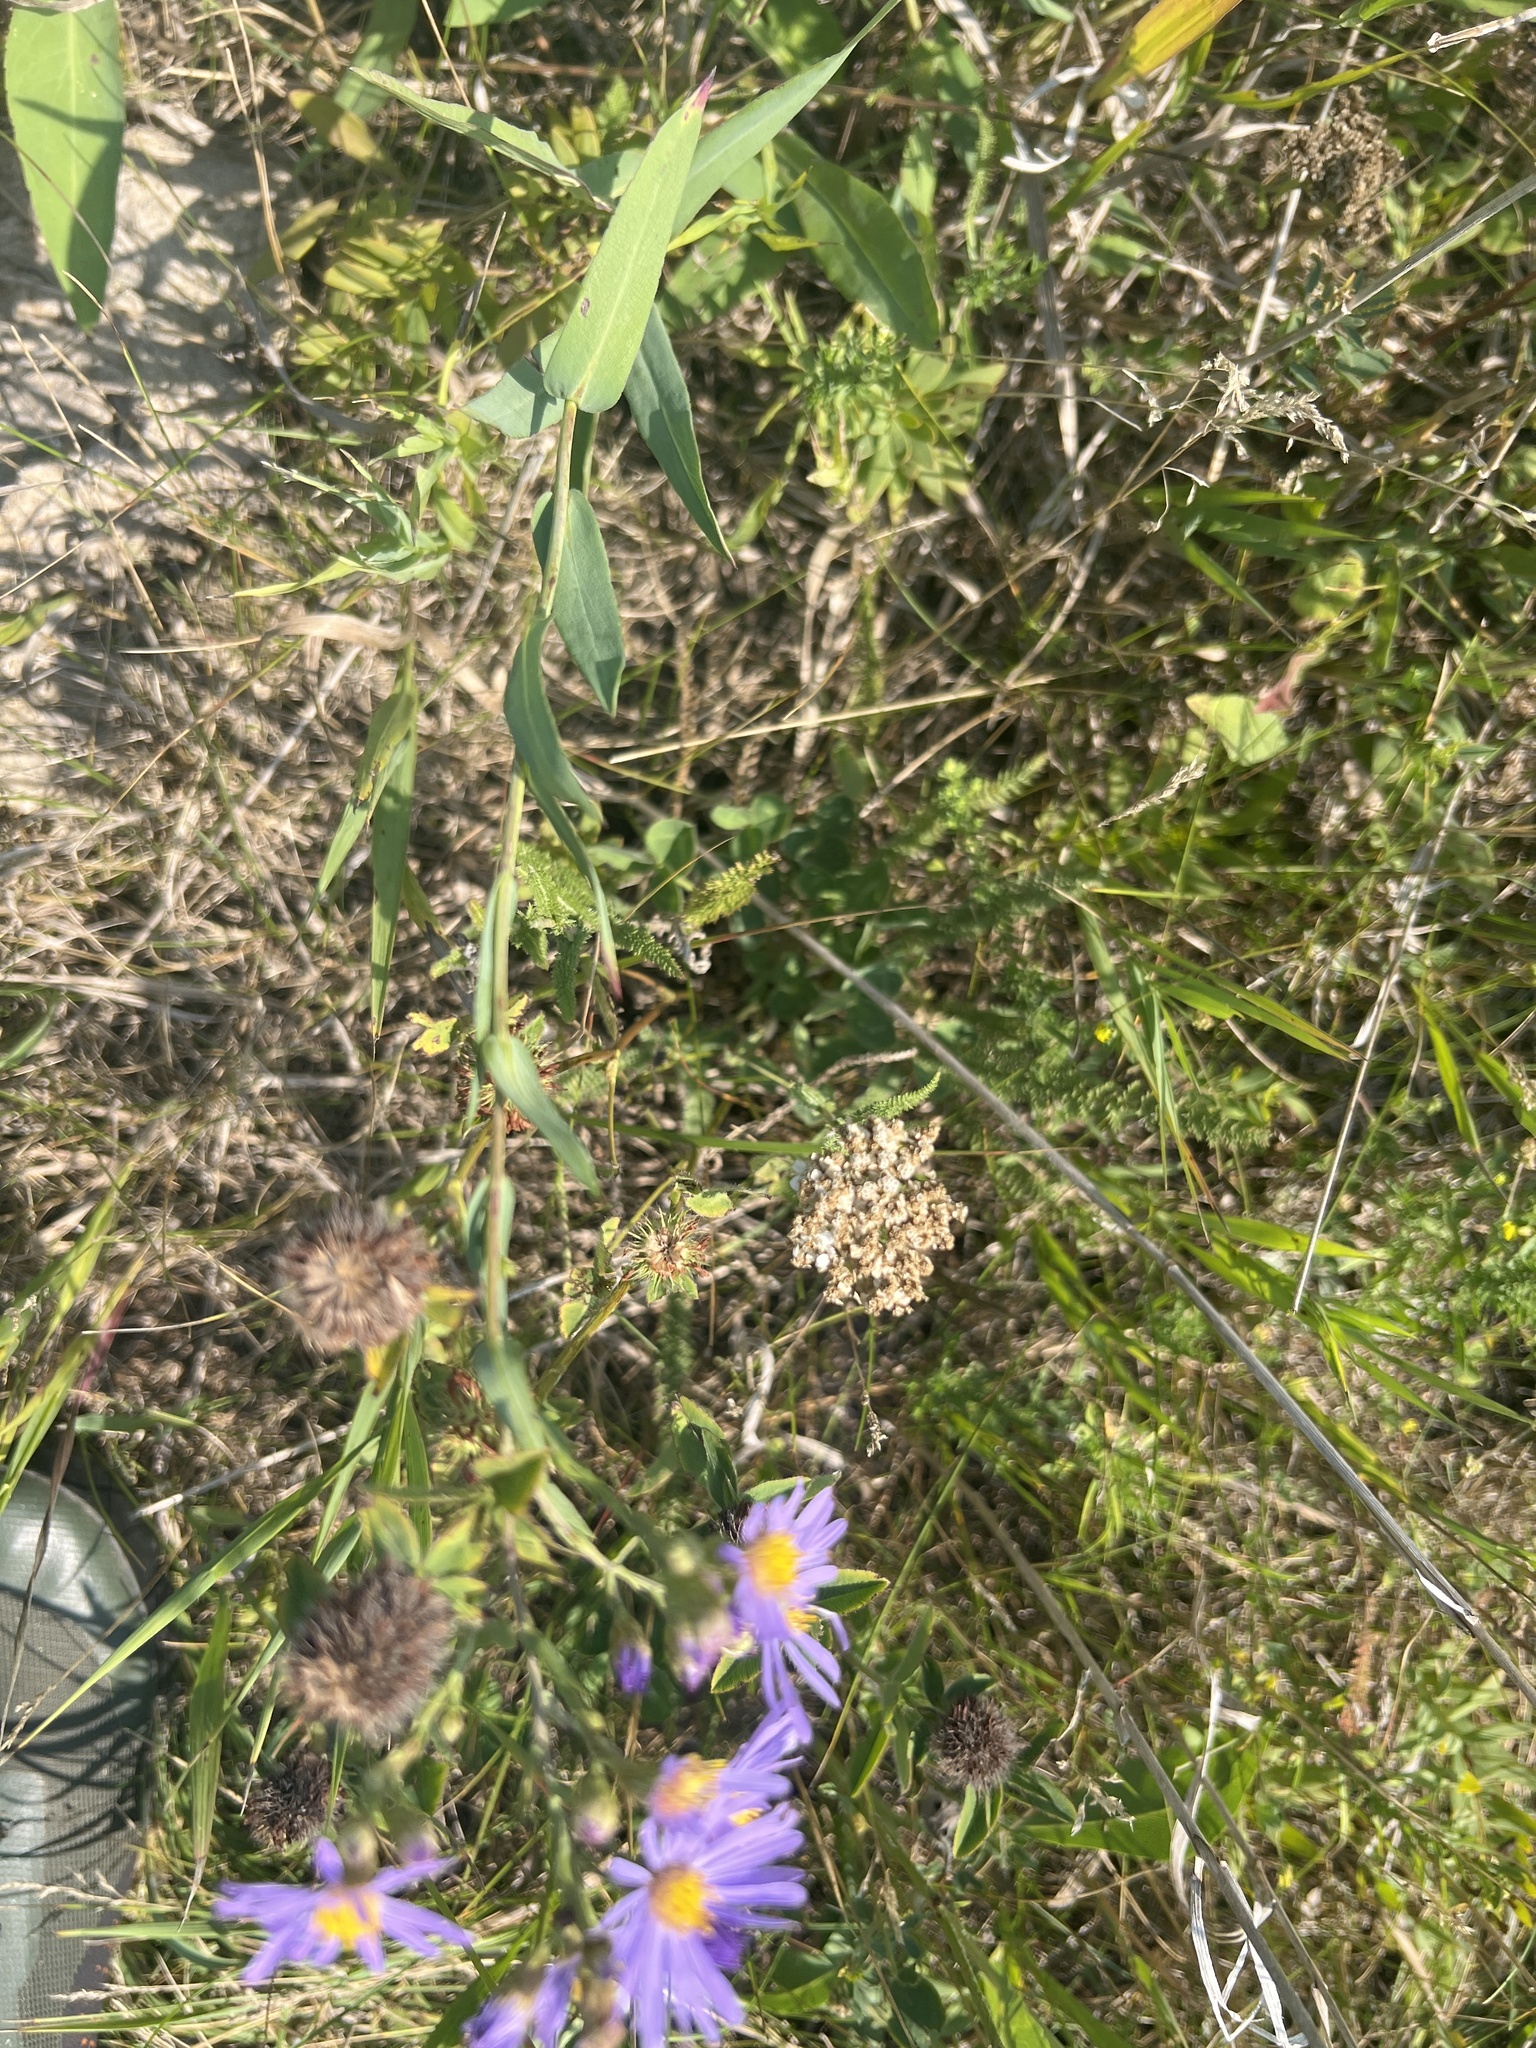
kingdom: Plantae
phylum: Tracheophyta
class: Magnoliopsida
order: Asterales
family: Asteraceae
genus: Symphyotrichum
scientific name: Symphyotrichum laeve
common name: Glaucous aster
